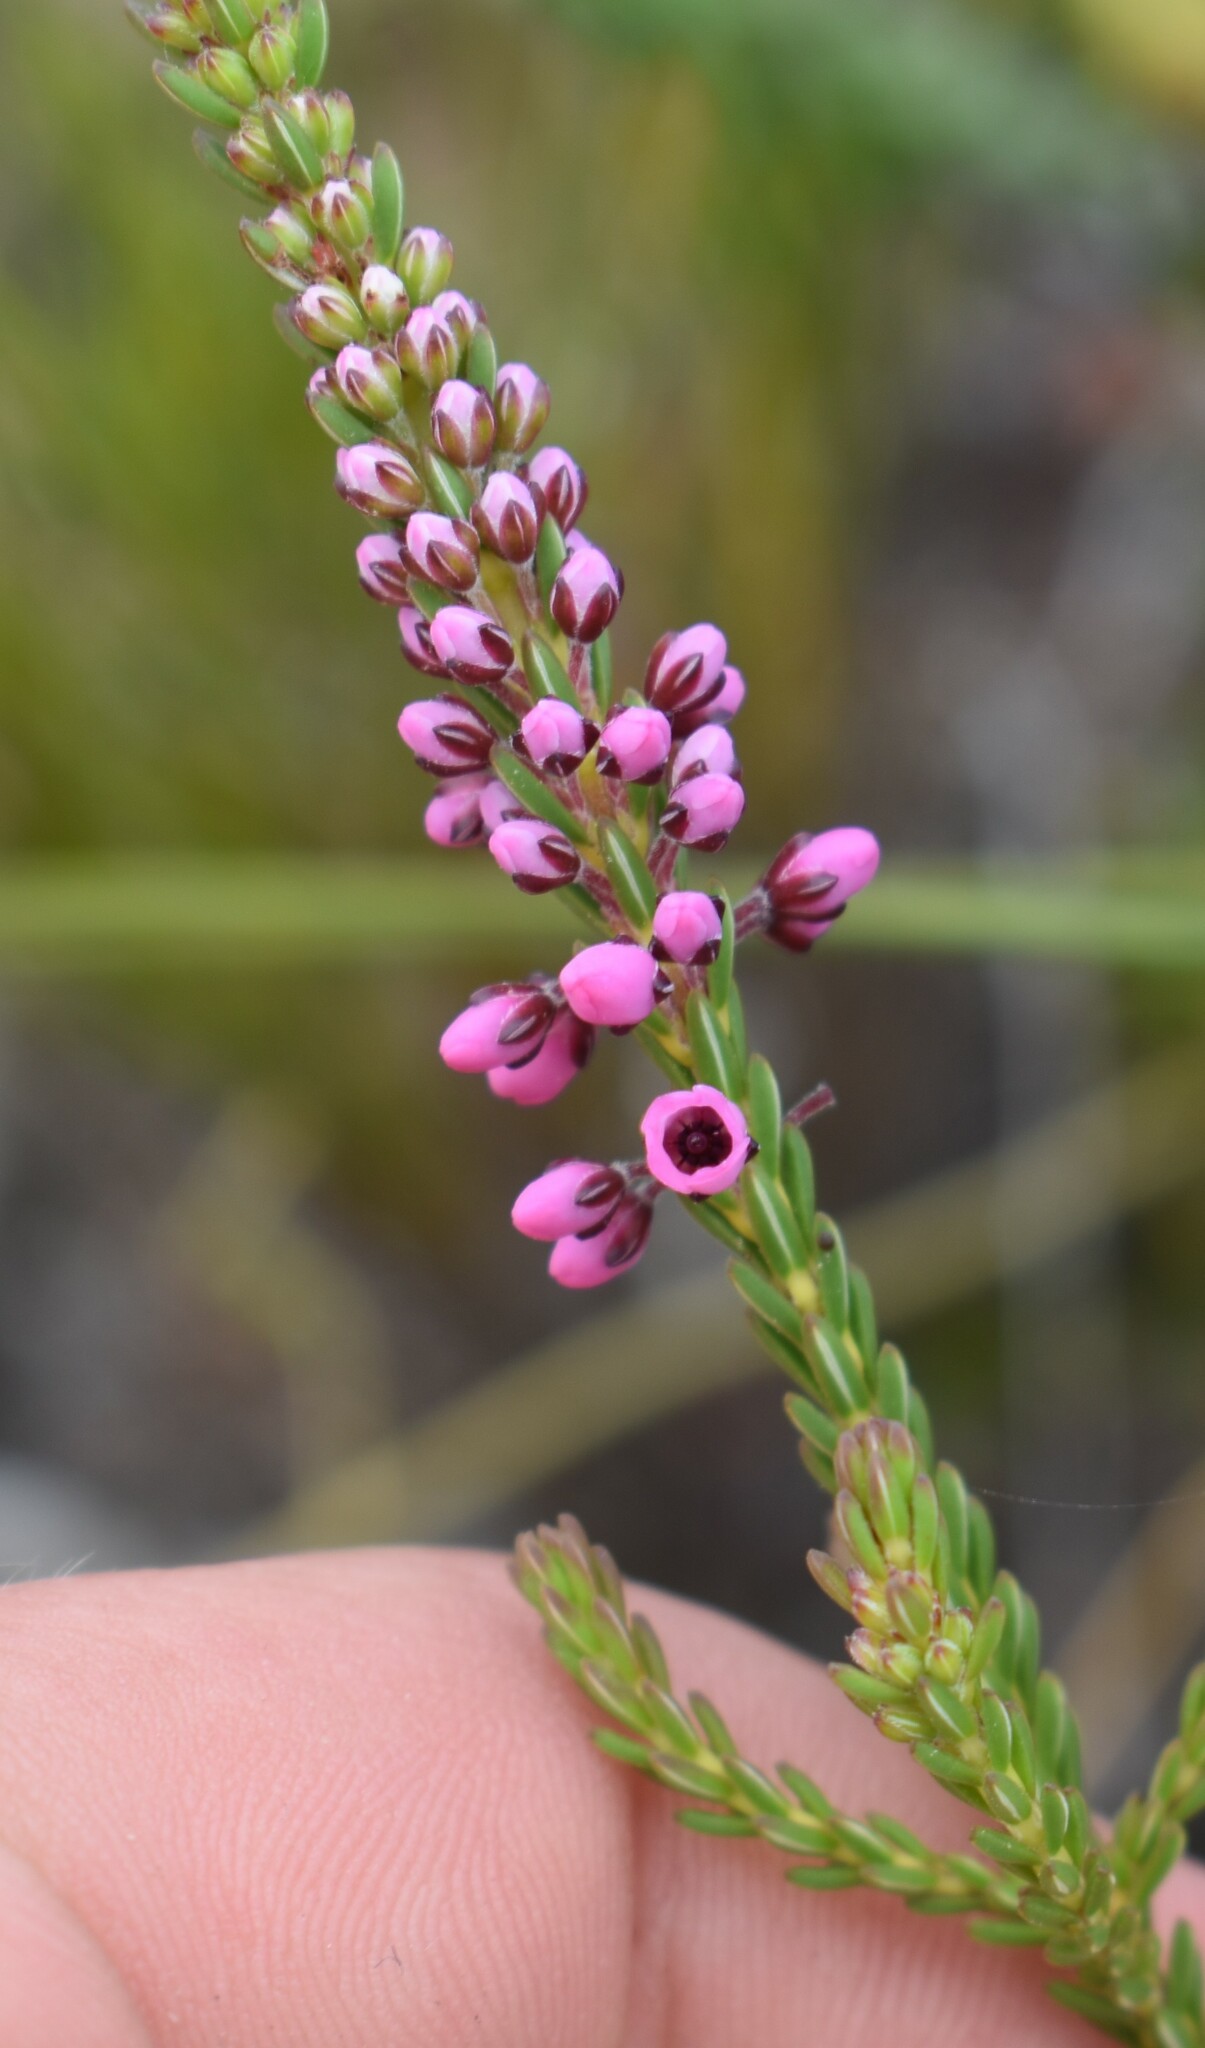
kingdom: Plantae
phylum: Tracheophyta
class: Magnoliopsida
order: Ericales
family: Ericaceae
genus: Erica
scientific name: Erica pulchella
